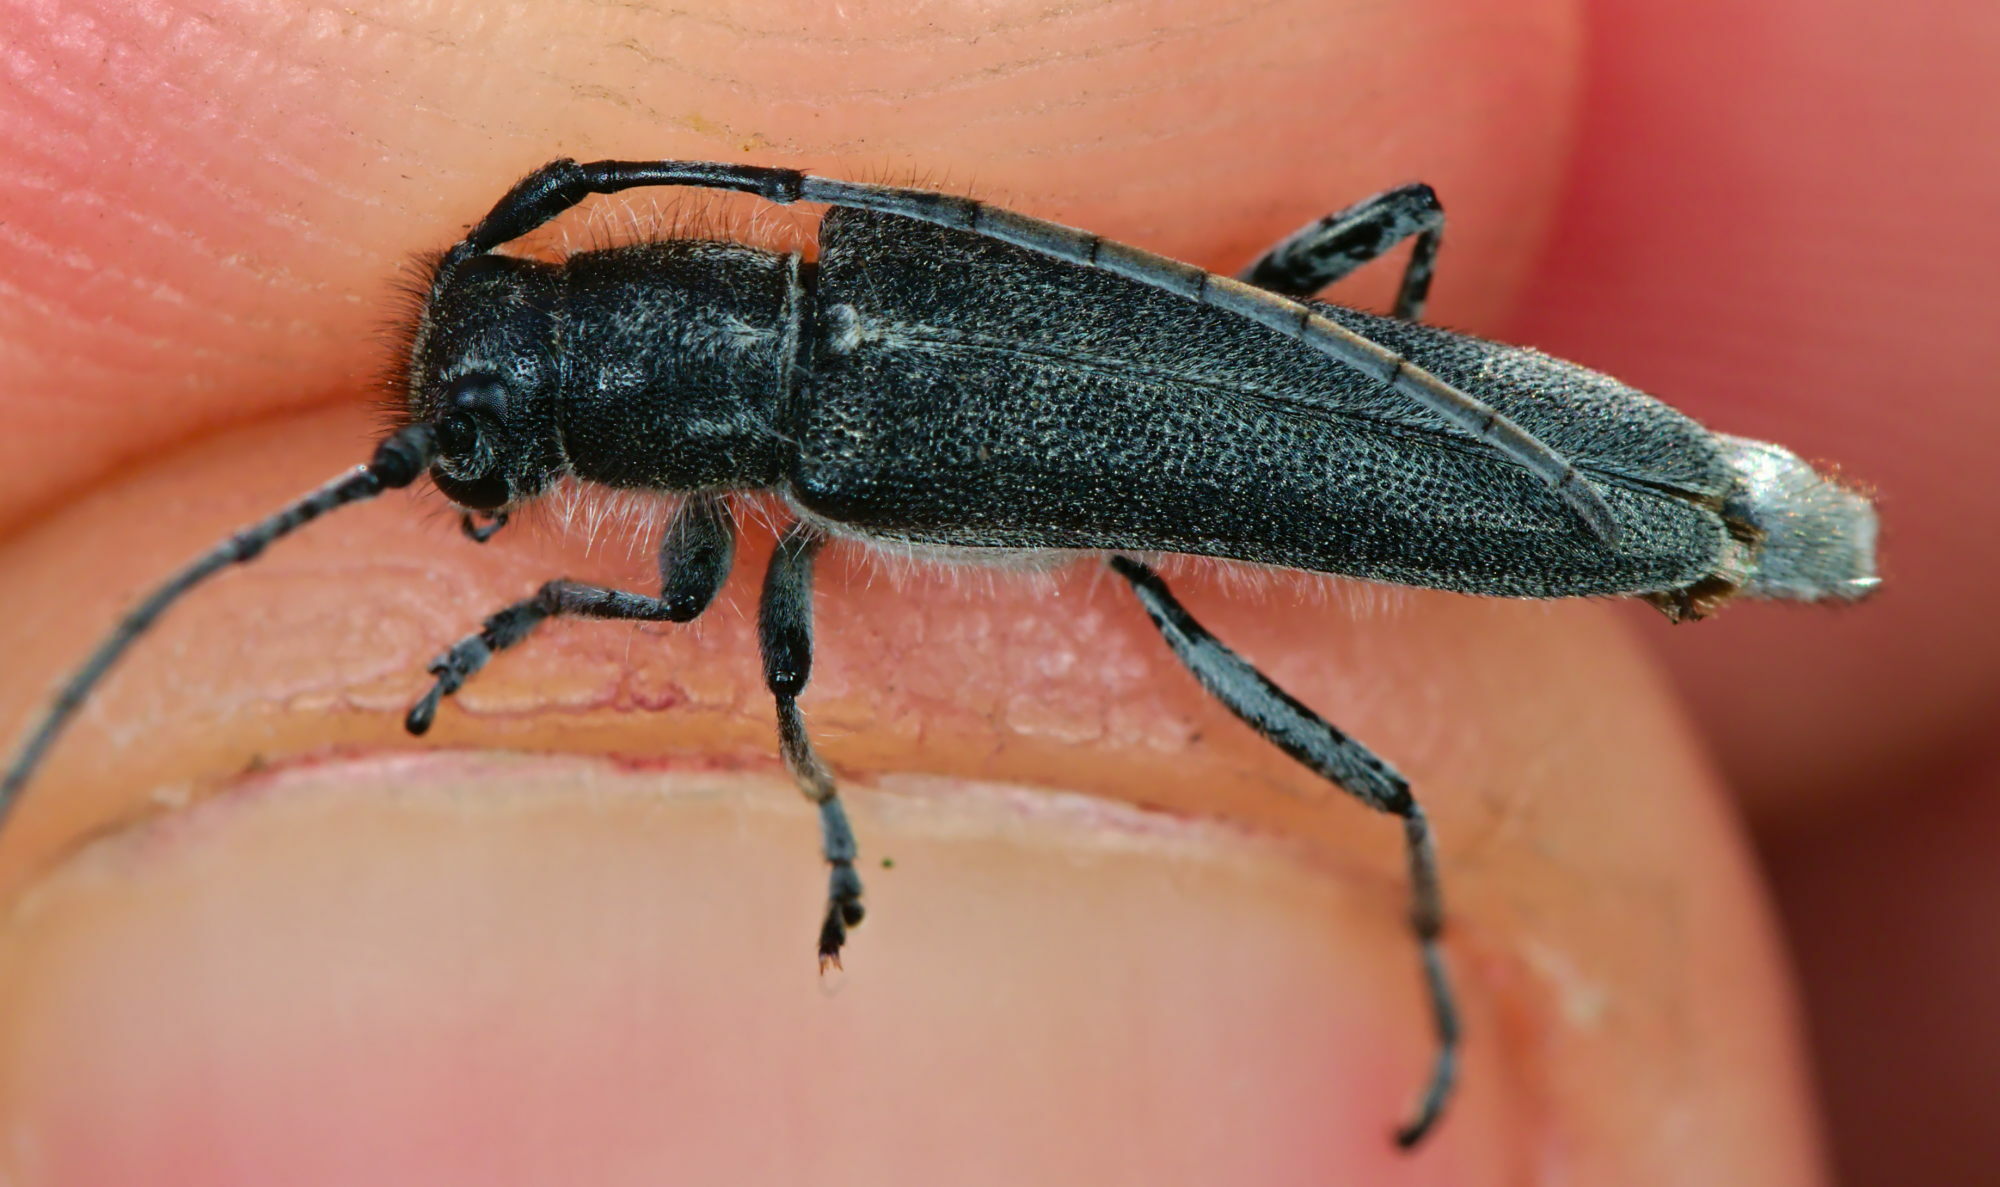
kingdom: Animalia
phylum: Arthropoda
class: Insecta
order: Coleoptera
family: Cerambycidae
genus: Phytoecia
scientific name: Phytoecia coerulescens
